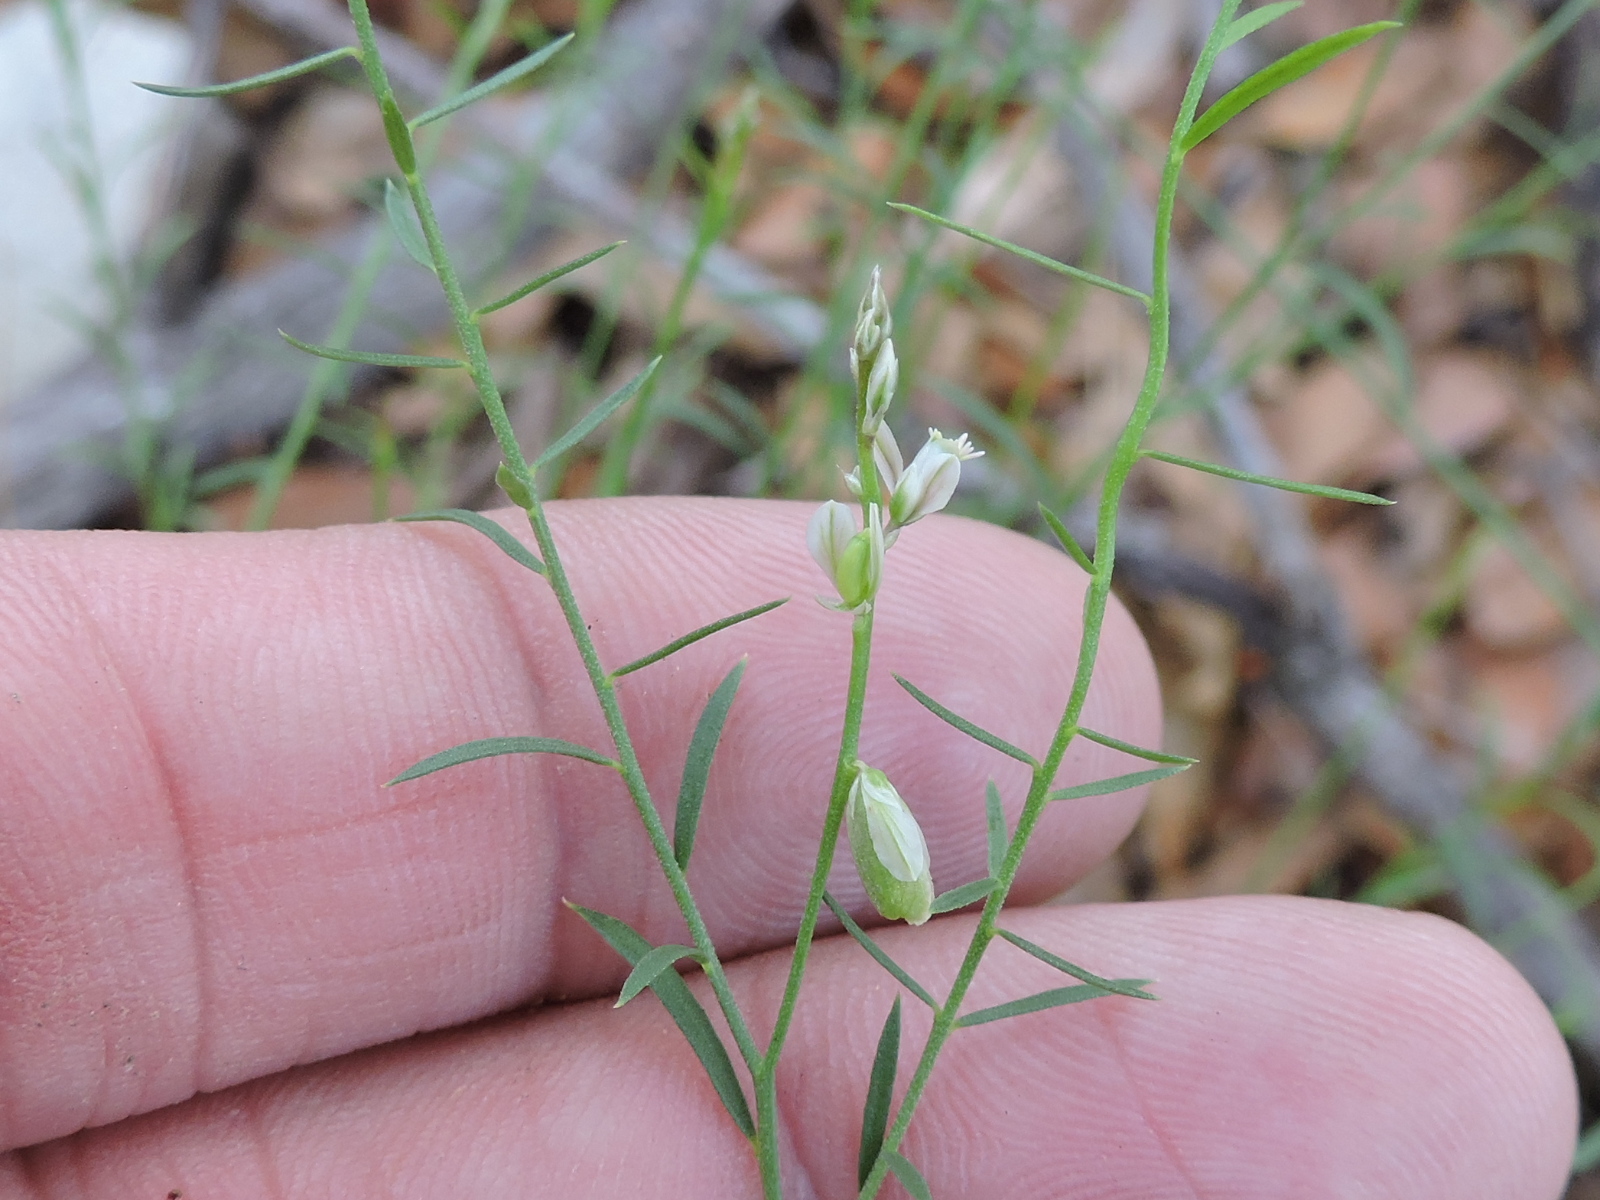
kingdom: Plantae
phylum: Tracheophyta
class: Magnoliopsida
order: Fabales
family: Polygalaceae
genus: Polygala
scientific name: Polygala scoparioides
